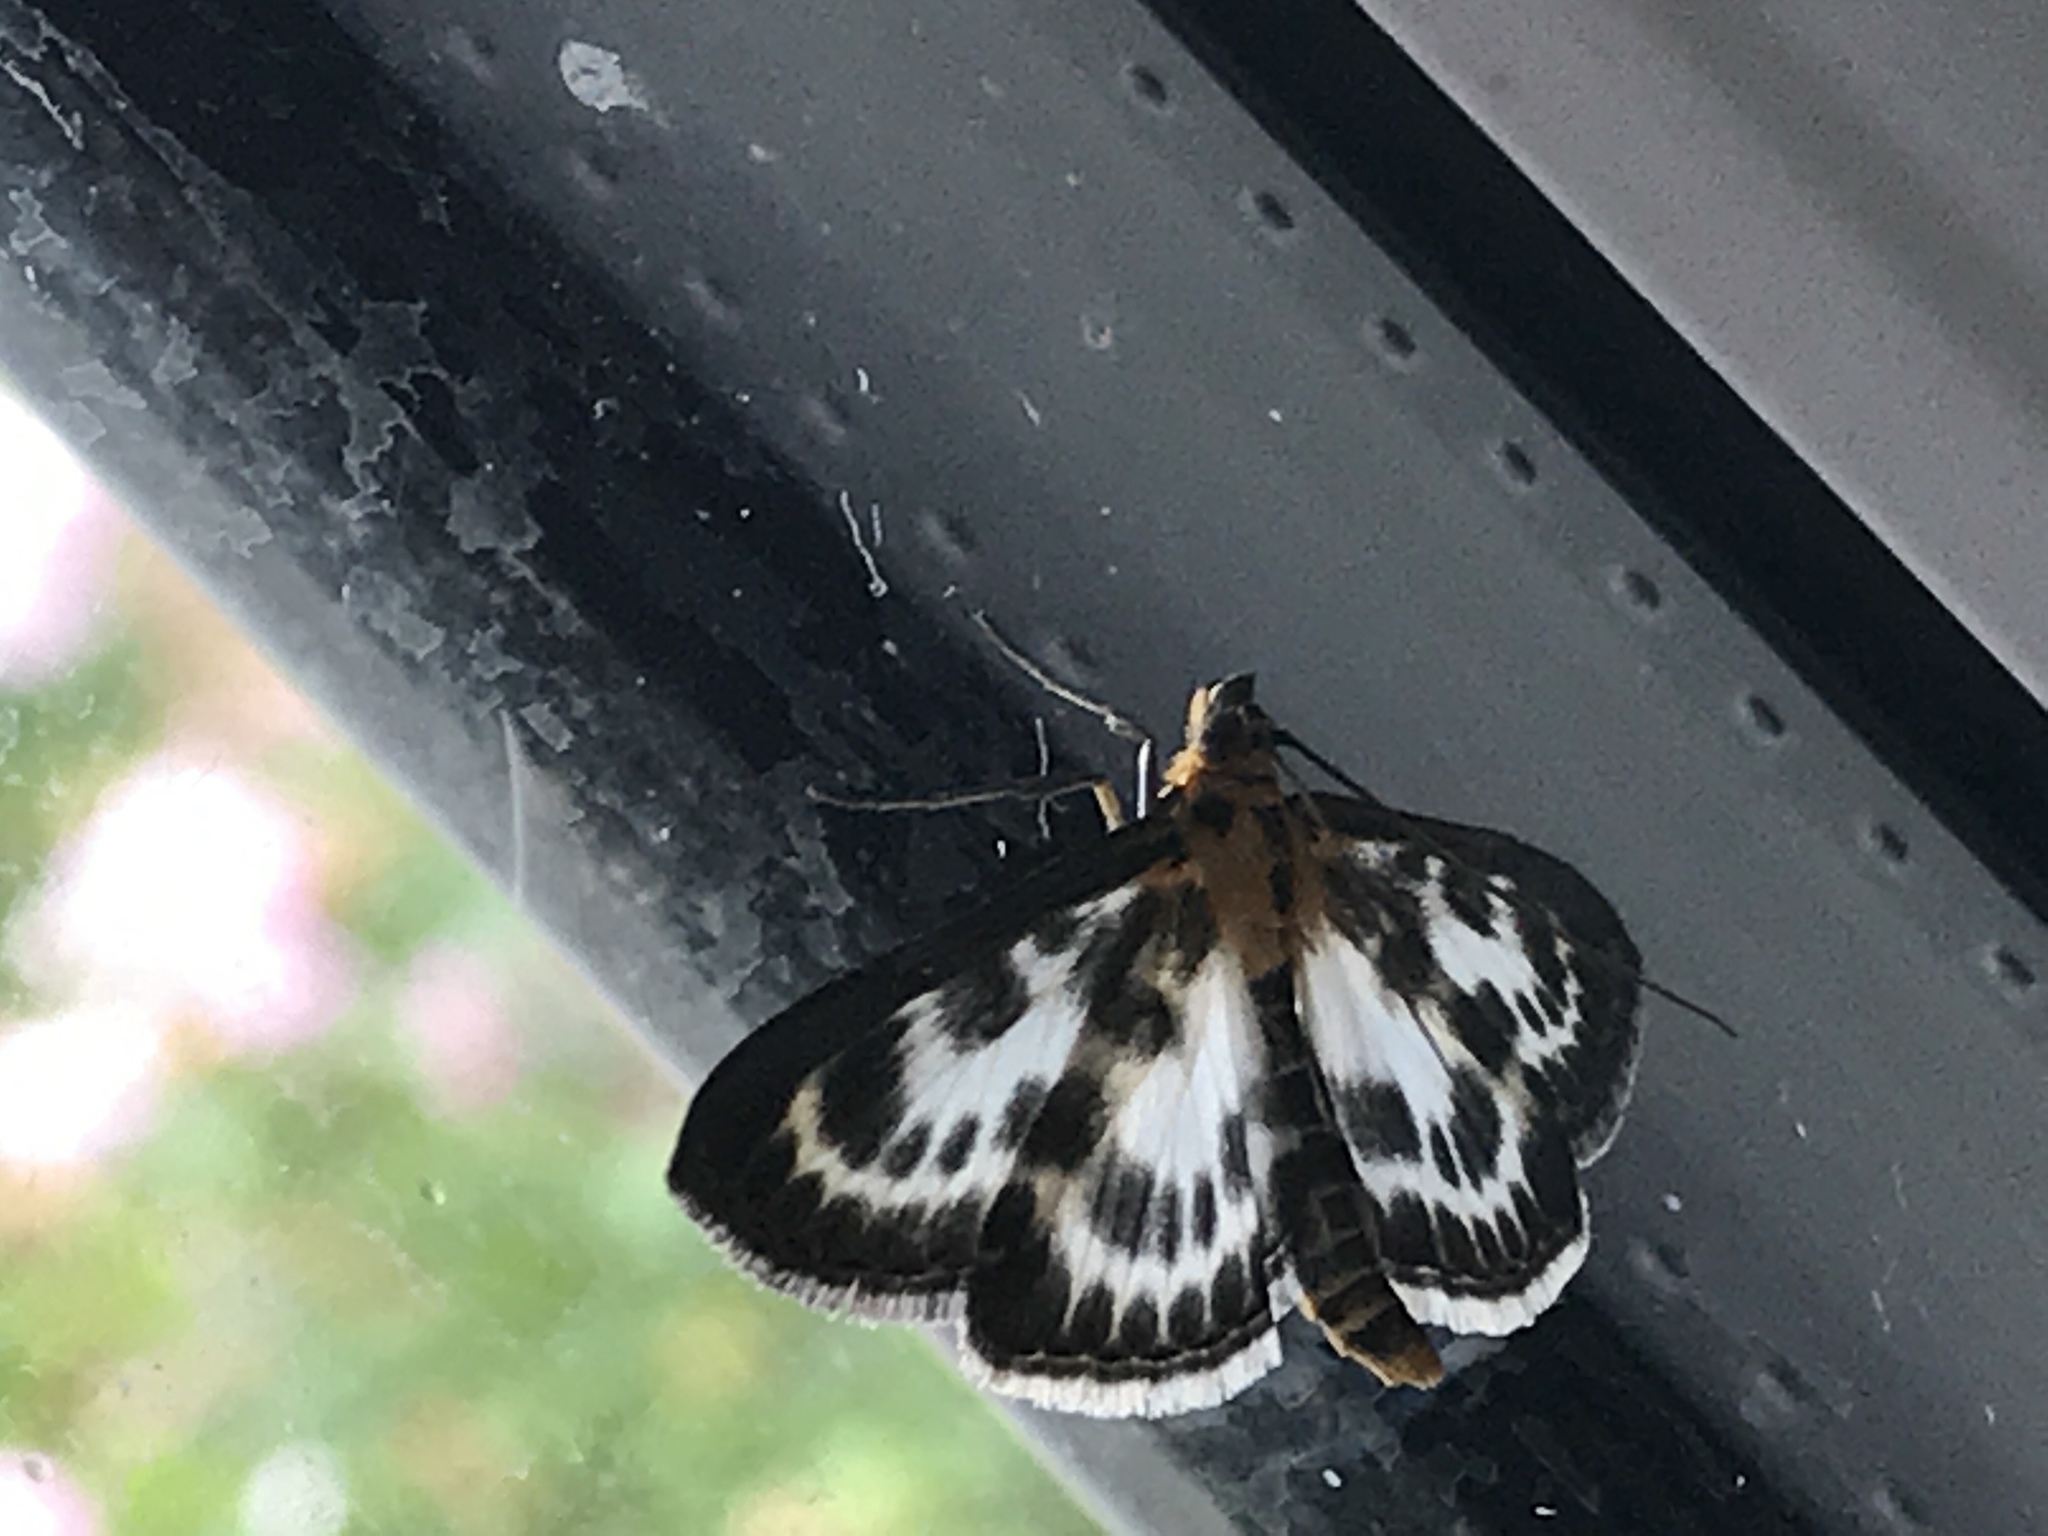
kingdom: Animalia
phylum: Arthropoda
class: Insecta
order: Lepidoptera
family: Crambidae
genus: Anania
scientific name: Anania hortulata
